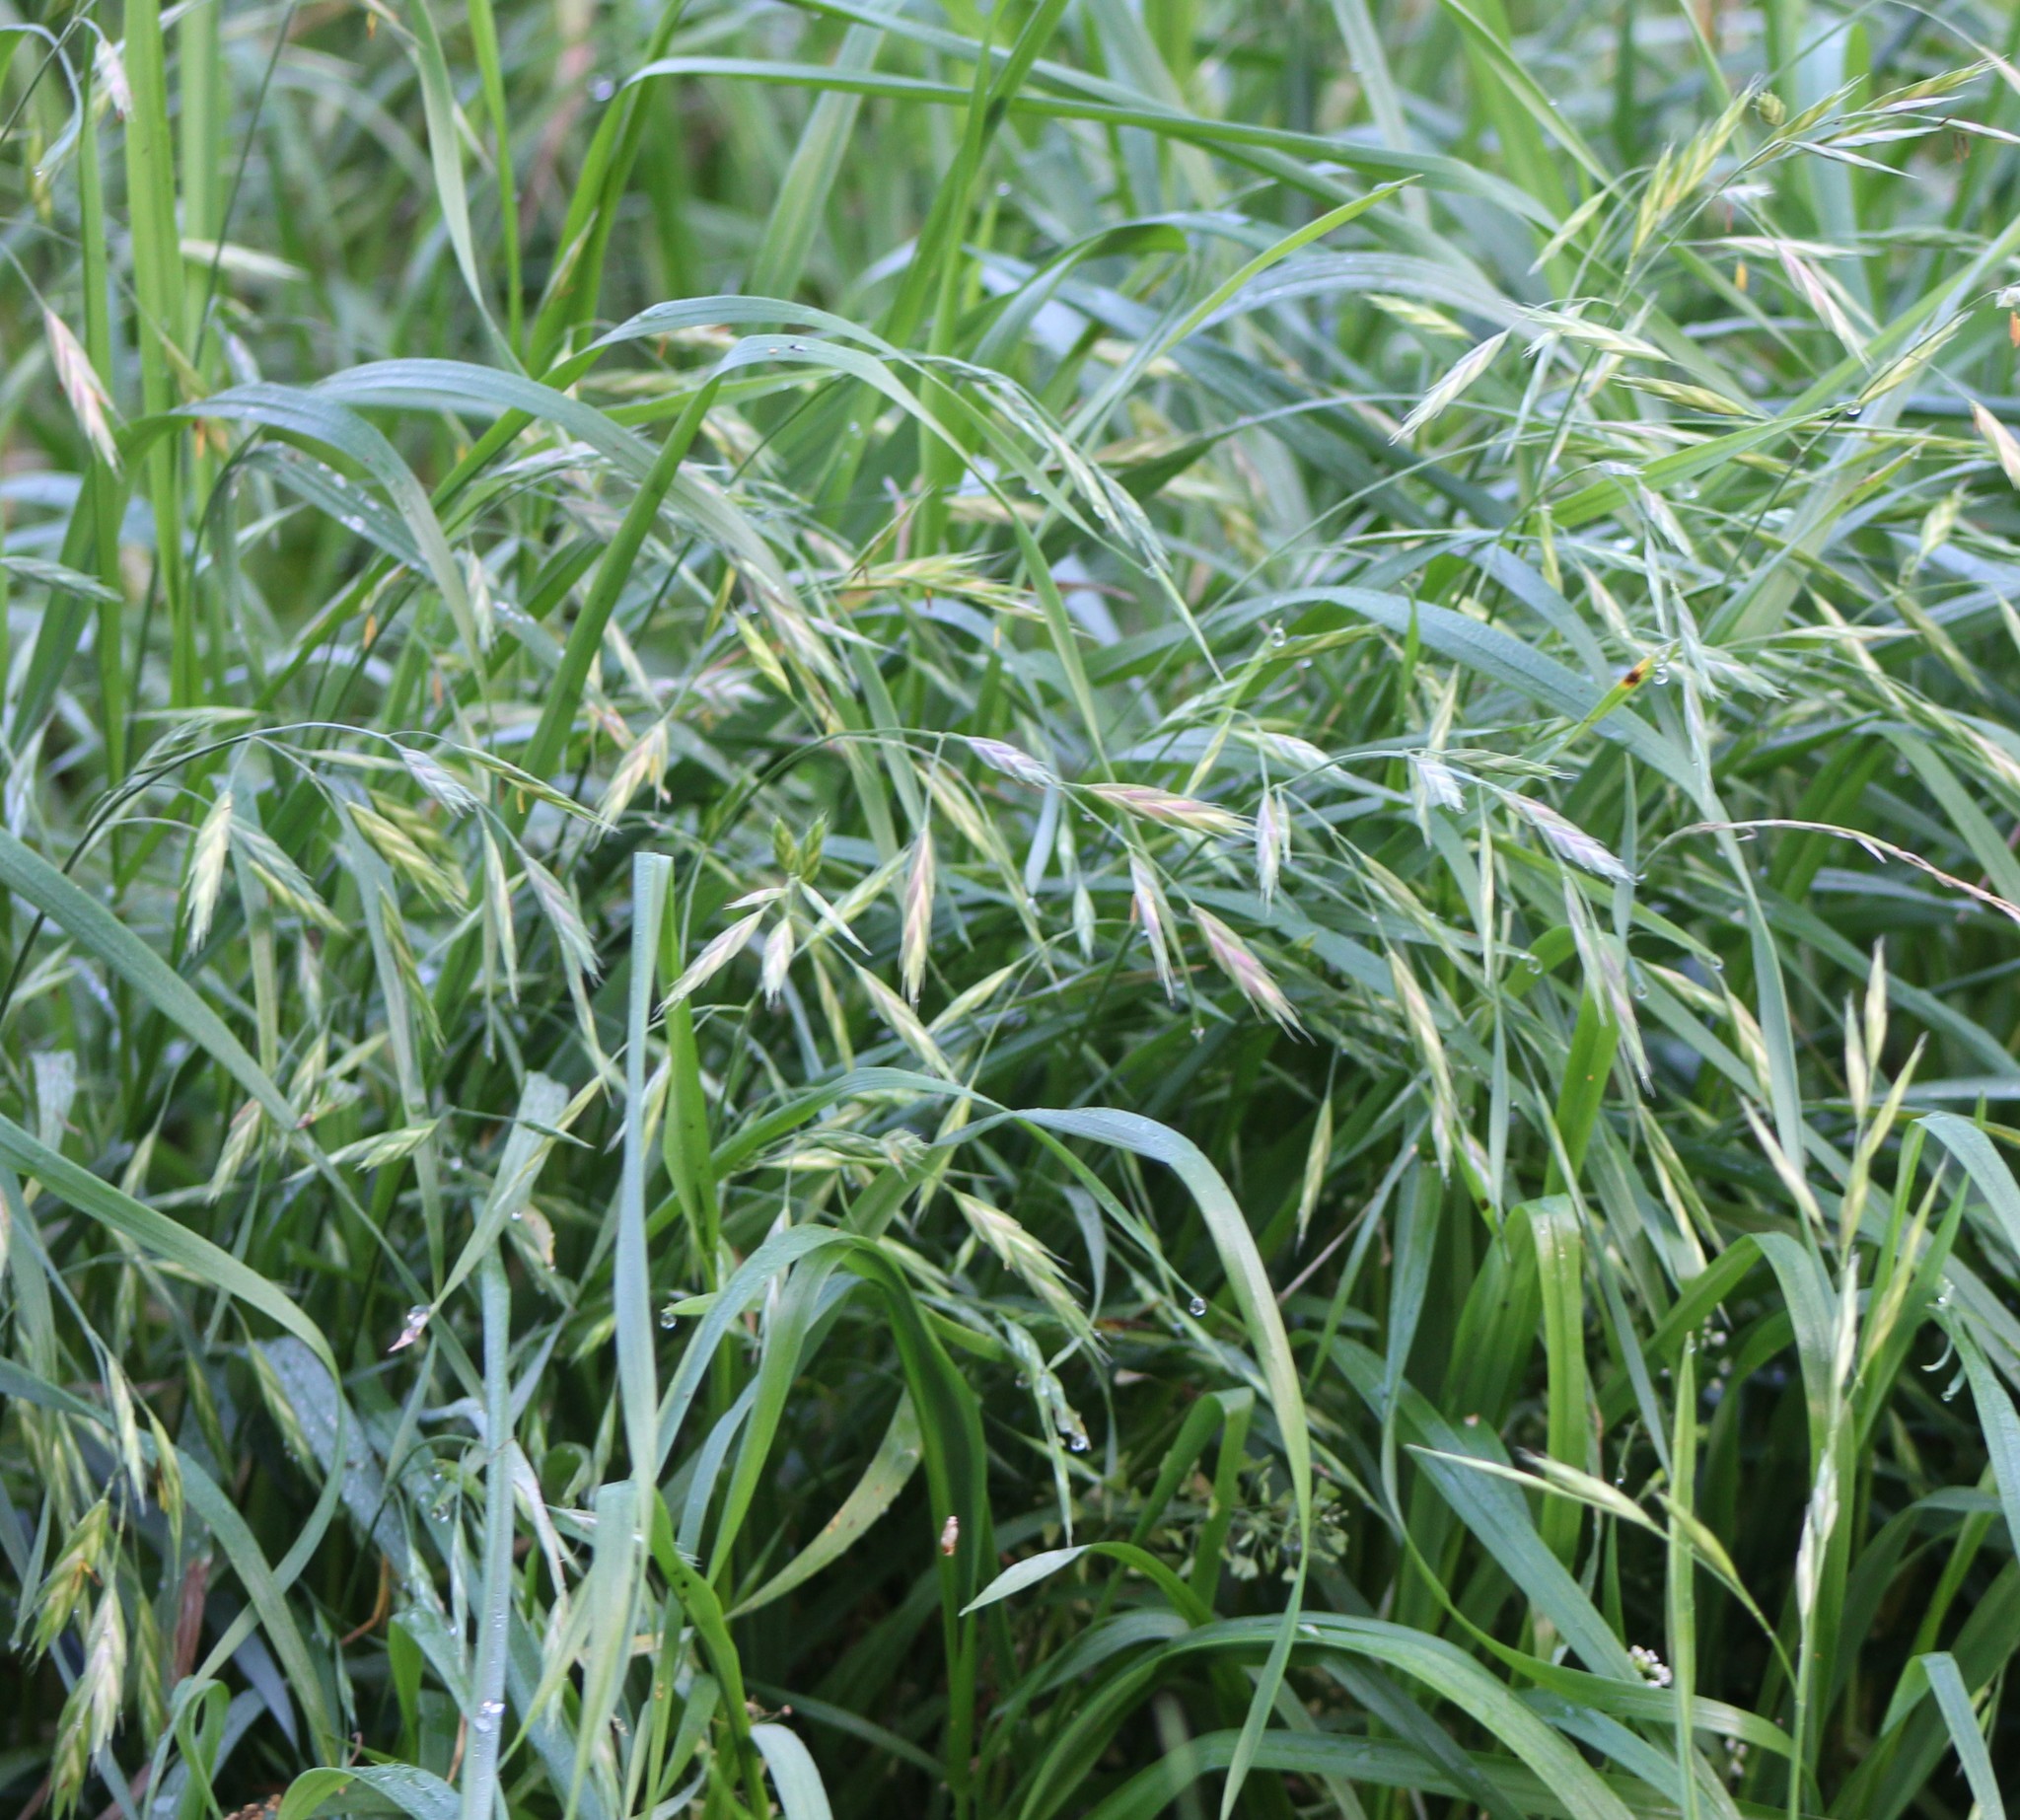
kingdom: Plantae
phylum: Tracheophyta
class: Liliopsida
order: Poales
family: Poaceae
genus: Bromus
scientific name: Bromus catharticus
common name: Rescuegrass
